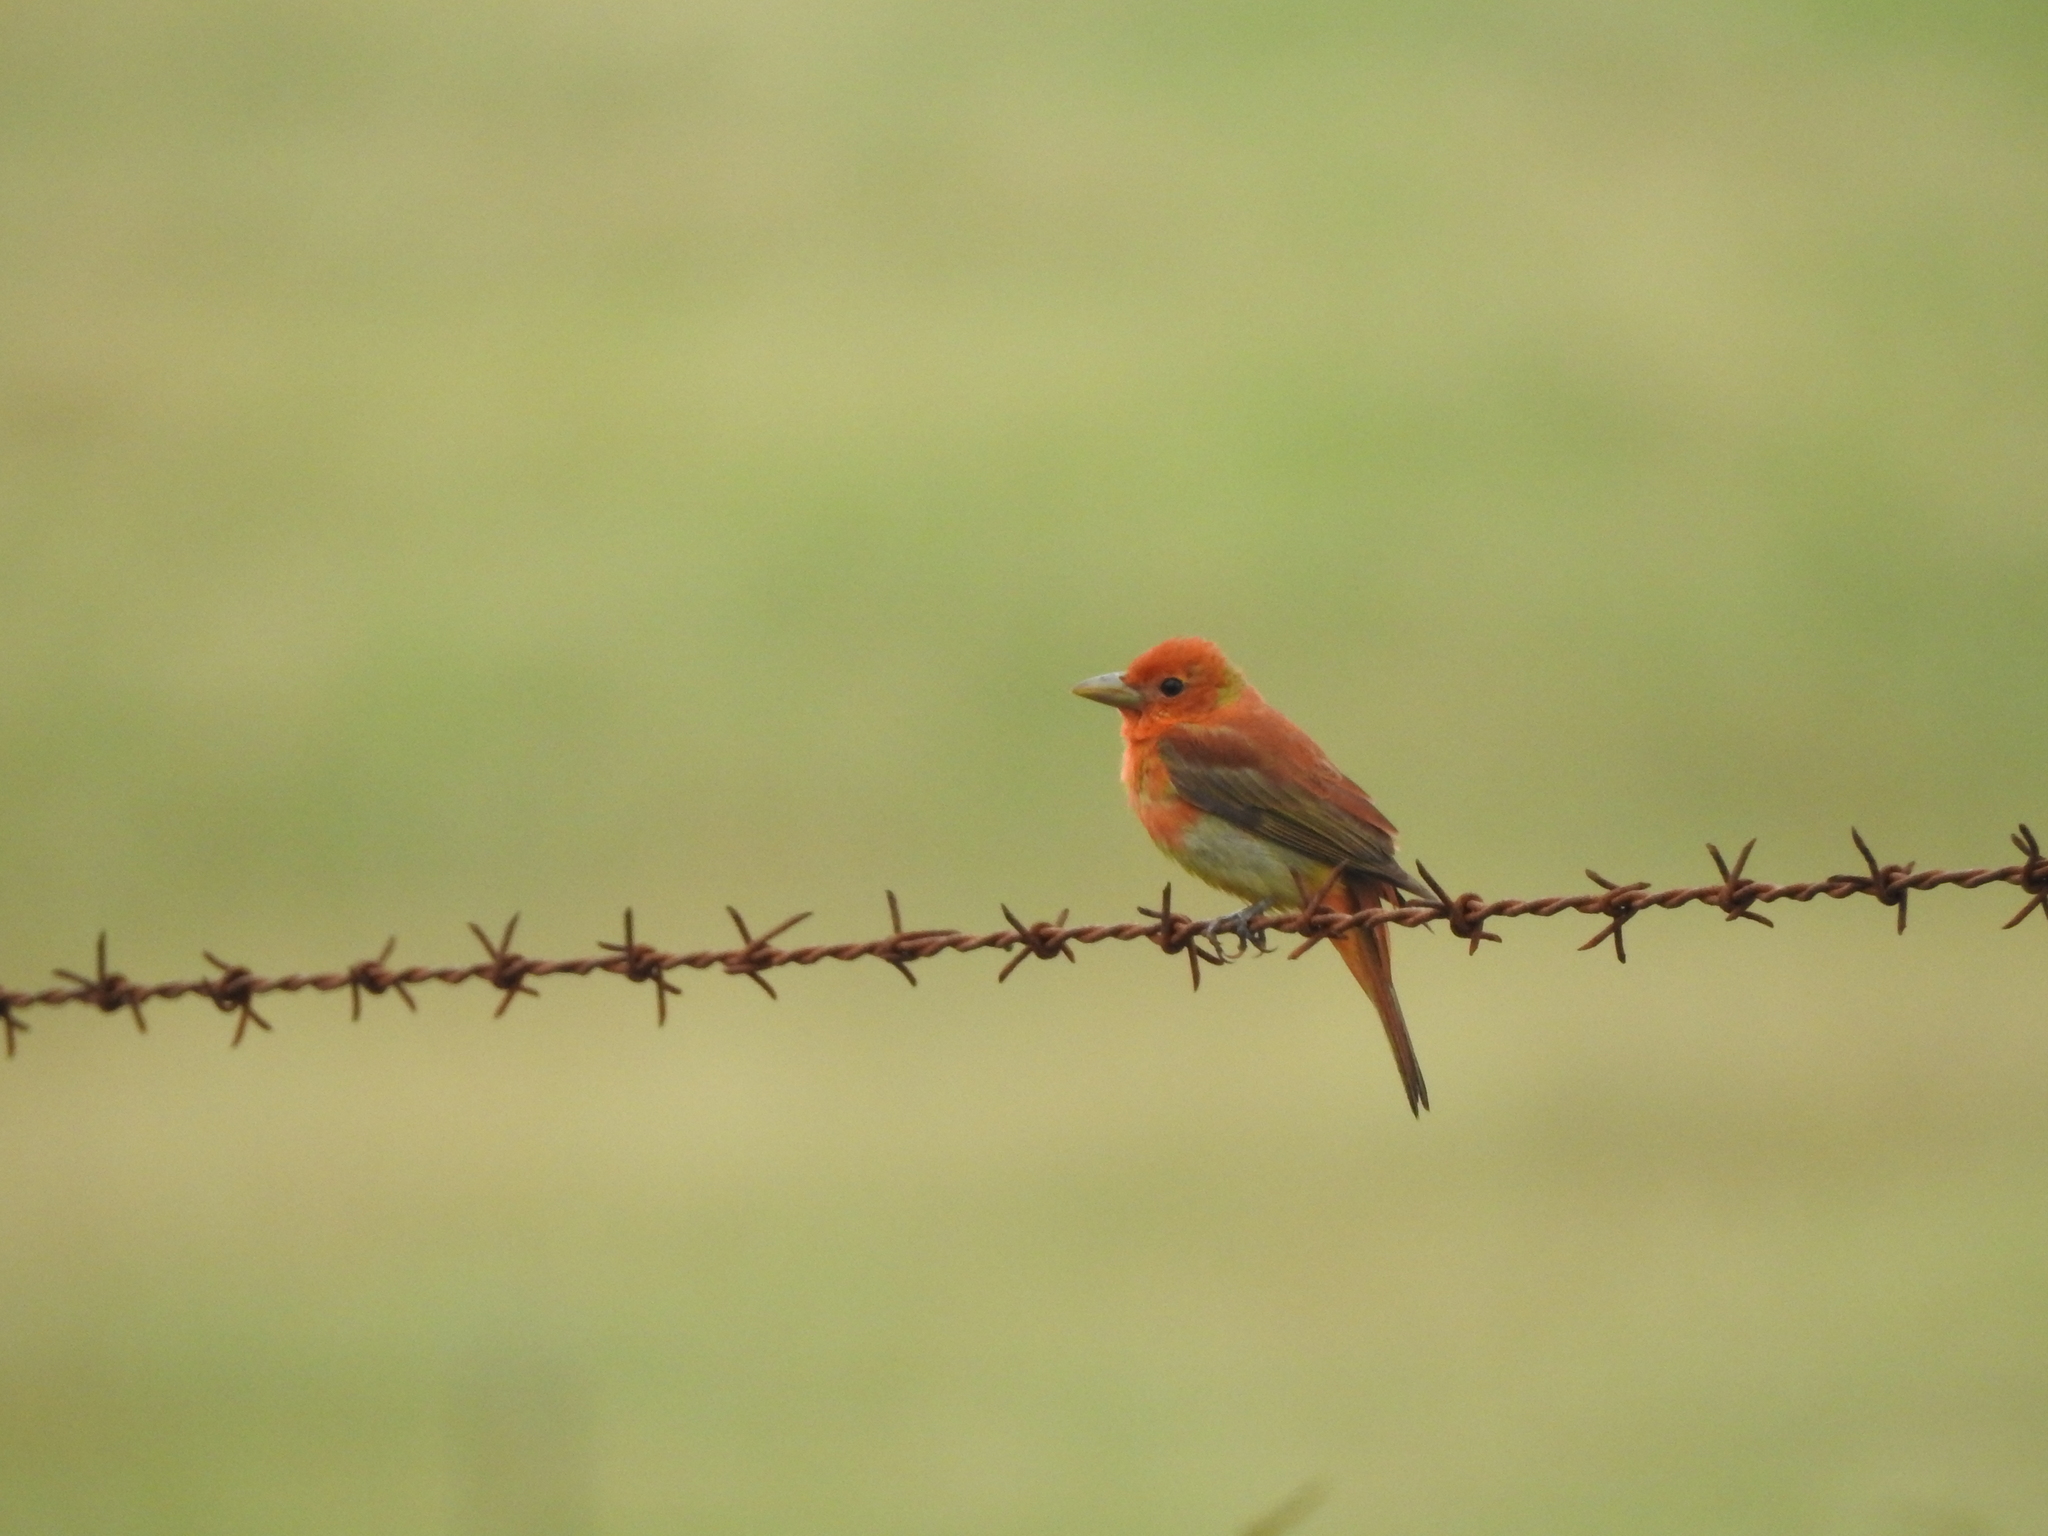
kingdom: Animalia
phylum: Chordata
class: Aves
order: Passeriformes
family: Cardinalidae
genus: Piranga
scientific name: Piranga rubra
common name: Summer tanager
